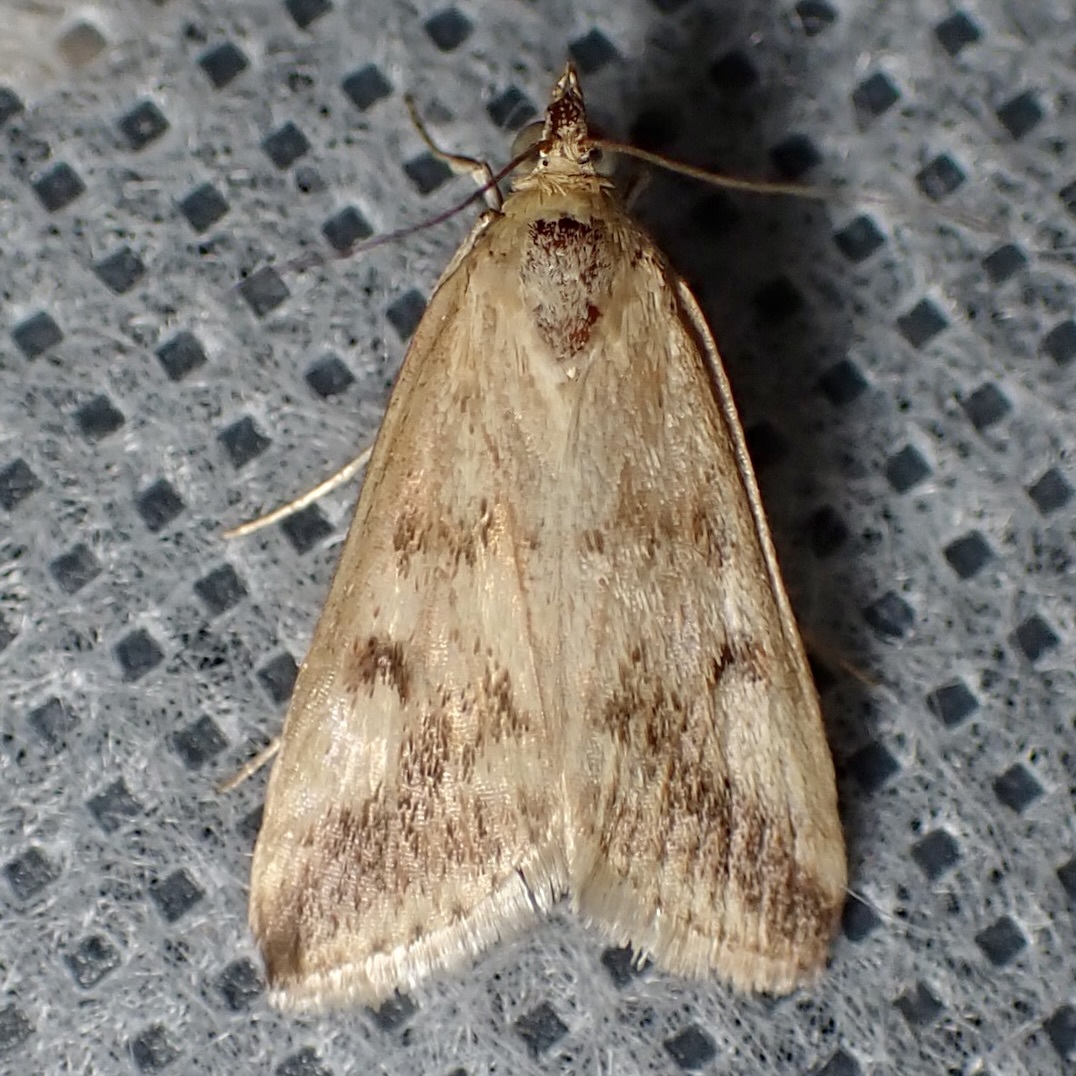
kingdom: Animalia
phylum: Arthropoda
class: Insecta
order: Lepidoptera
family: Crambidae
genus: Achyra
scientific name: Achyra bifidalis
